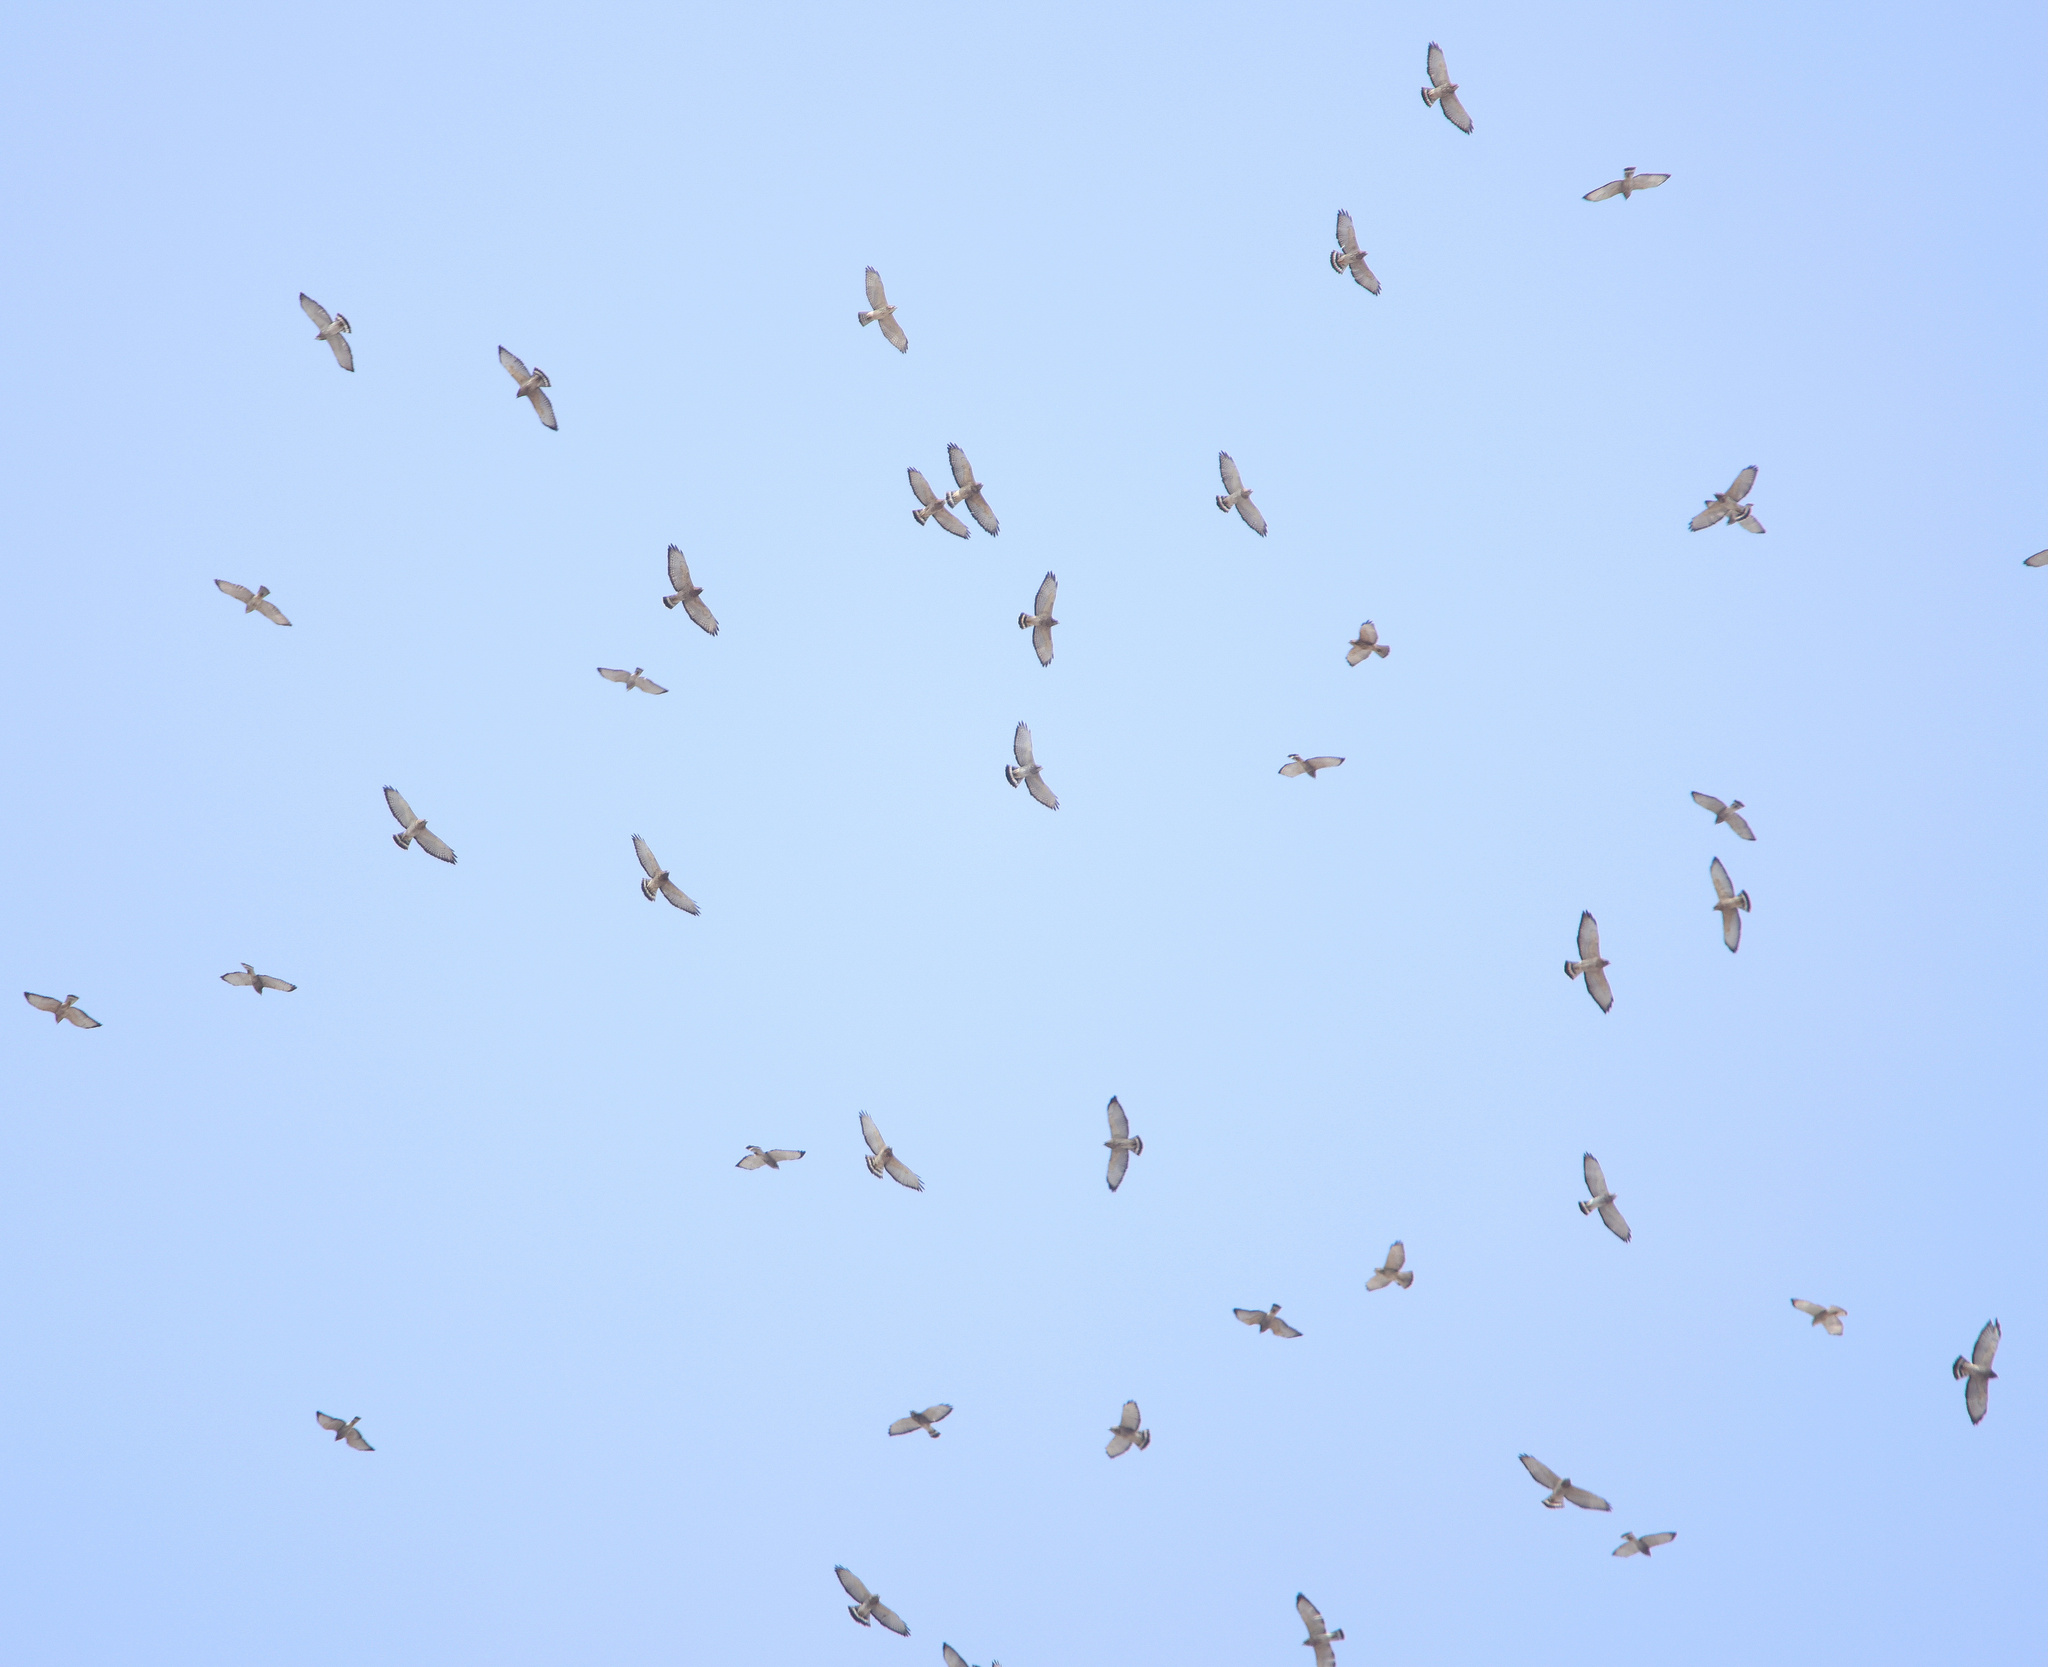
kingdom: Animalia
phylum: Chordata
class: Aves
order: Accipitriformes
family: Accipitridae
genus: Buteo
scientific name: Buteo platypterus
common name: Broad-winged hawk
